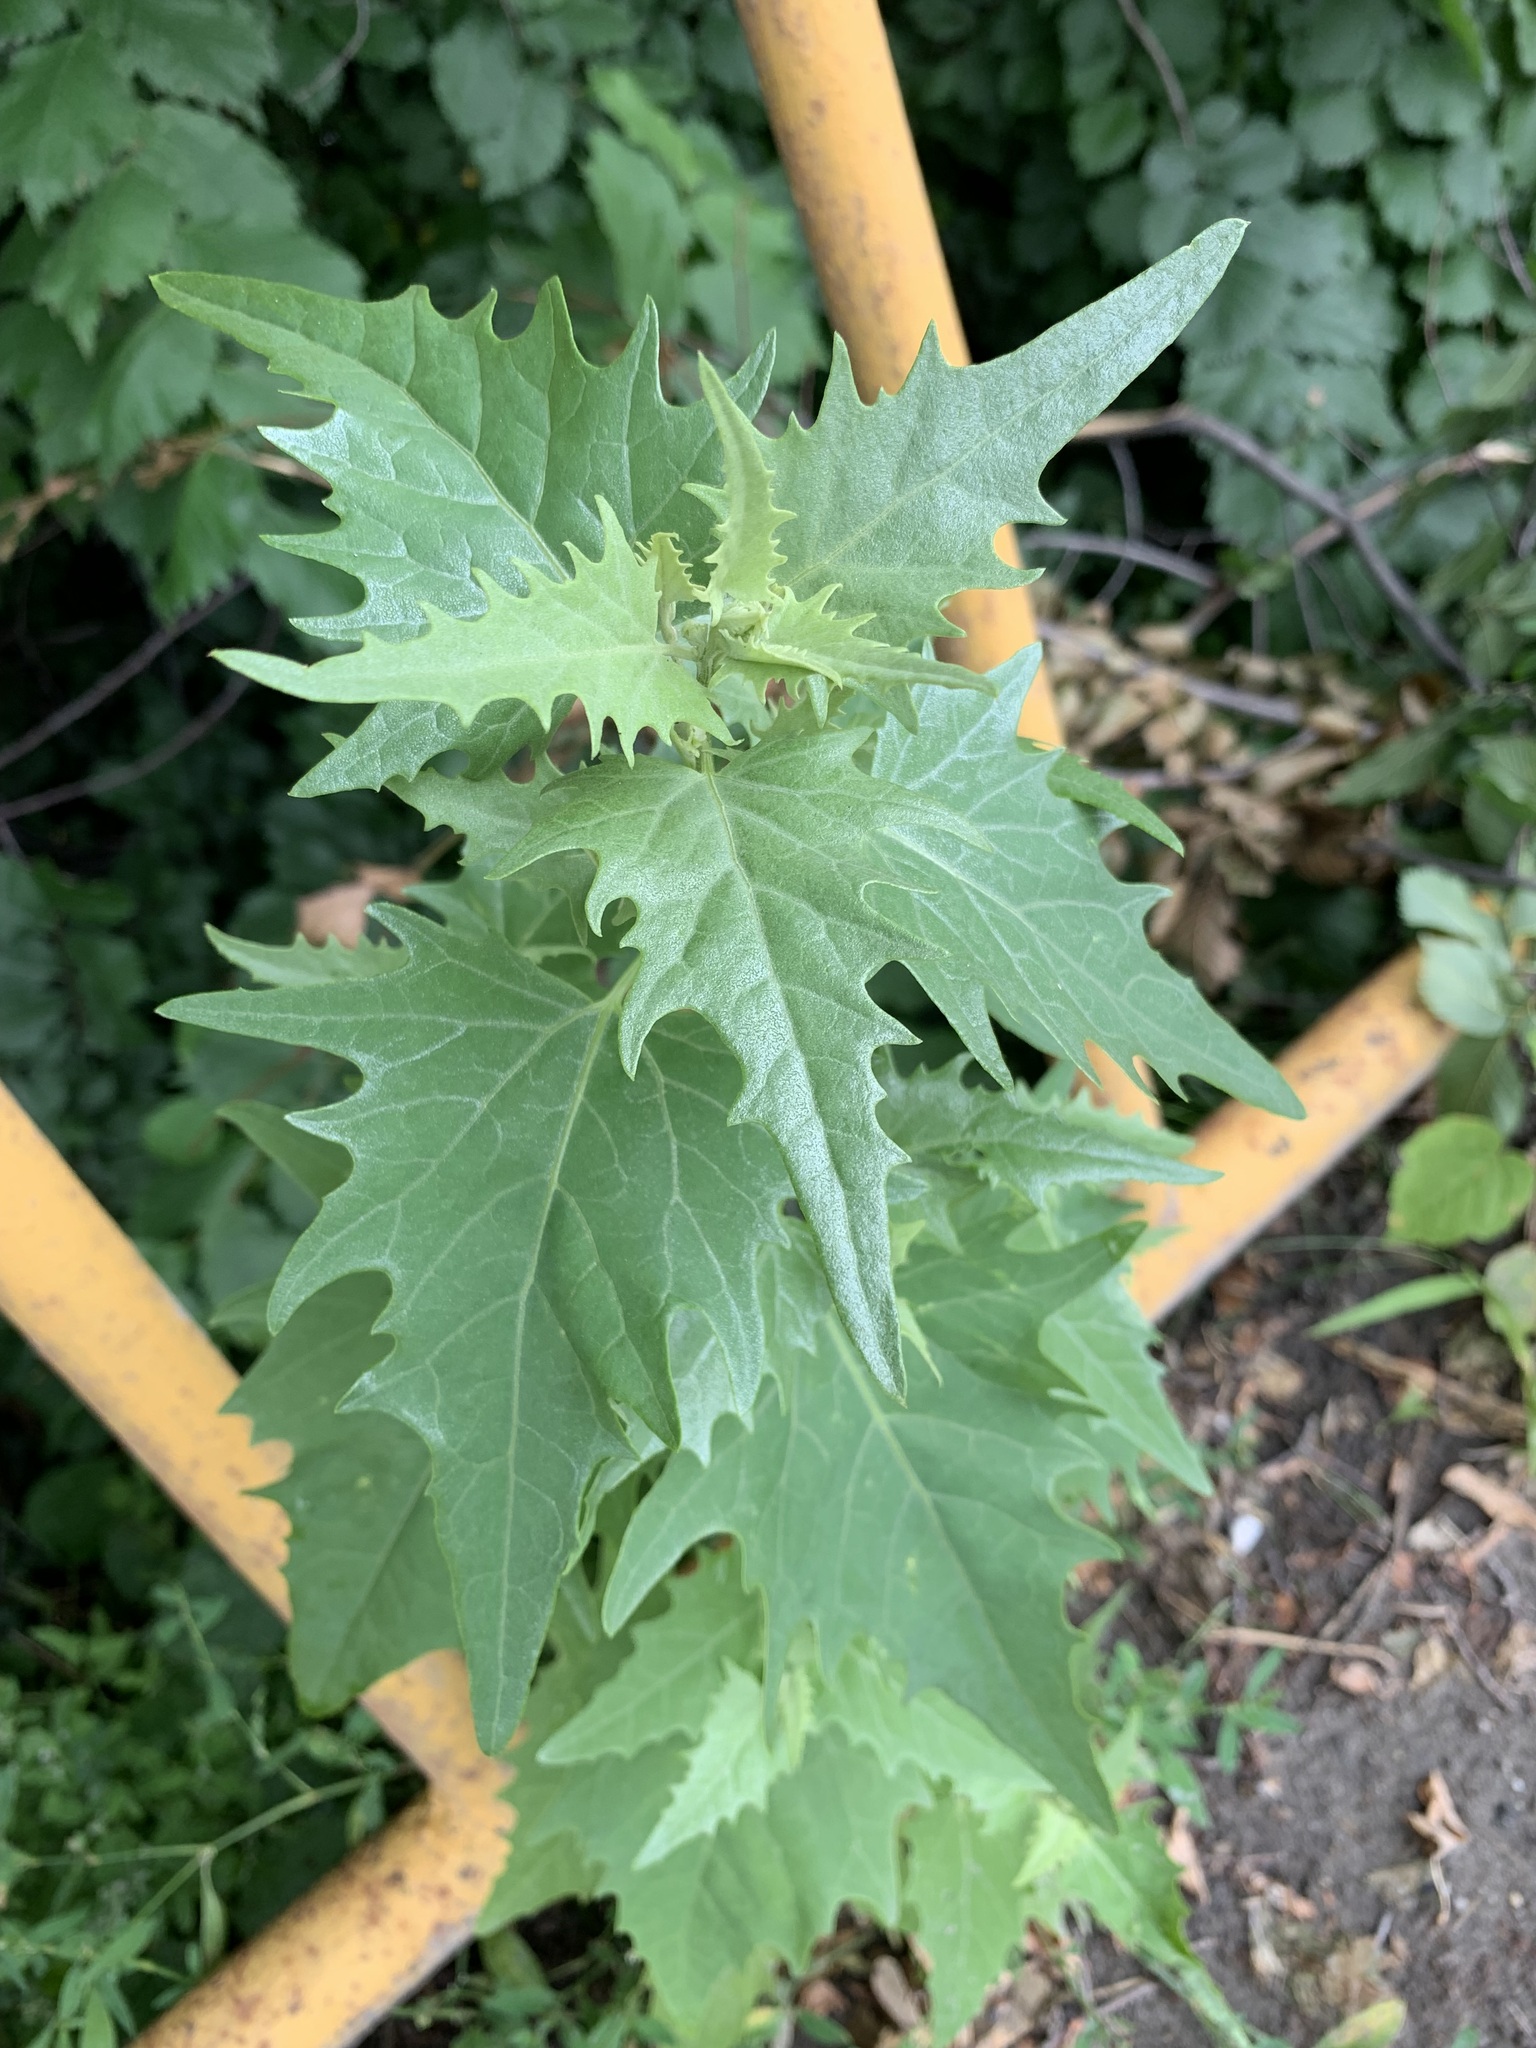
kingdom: Plantae
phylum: Tracheophyta
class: Magnoliopsida
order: Caryophyllales
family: Amaranthaceae
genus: Atriplex
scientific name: Atriplex sagittata
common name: Purple orache
